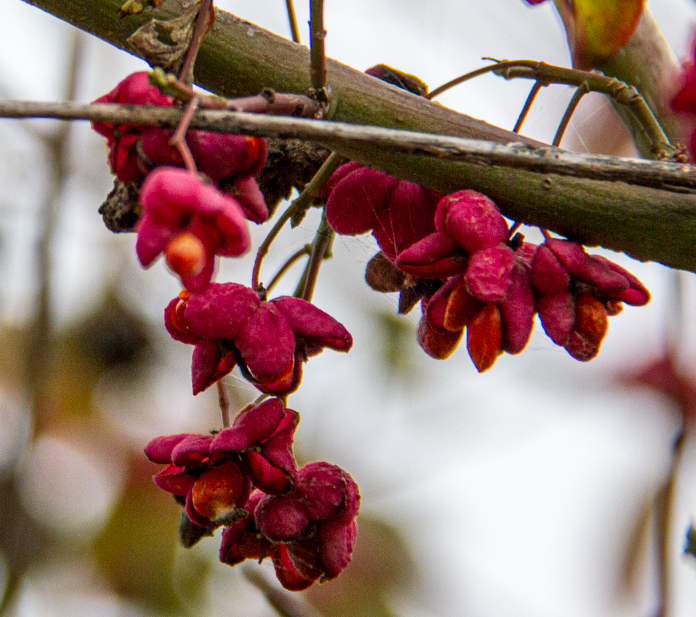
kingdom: Plantae
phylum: Tracheophyta
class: Magnoliopsida
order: Celastrales
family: Celastraceae
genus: Euonymus
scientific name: Euonymus europaeus
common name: Spindle
